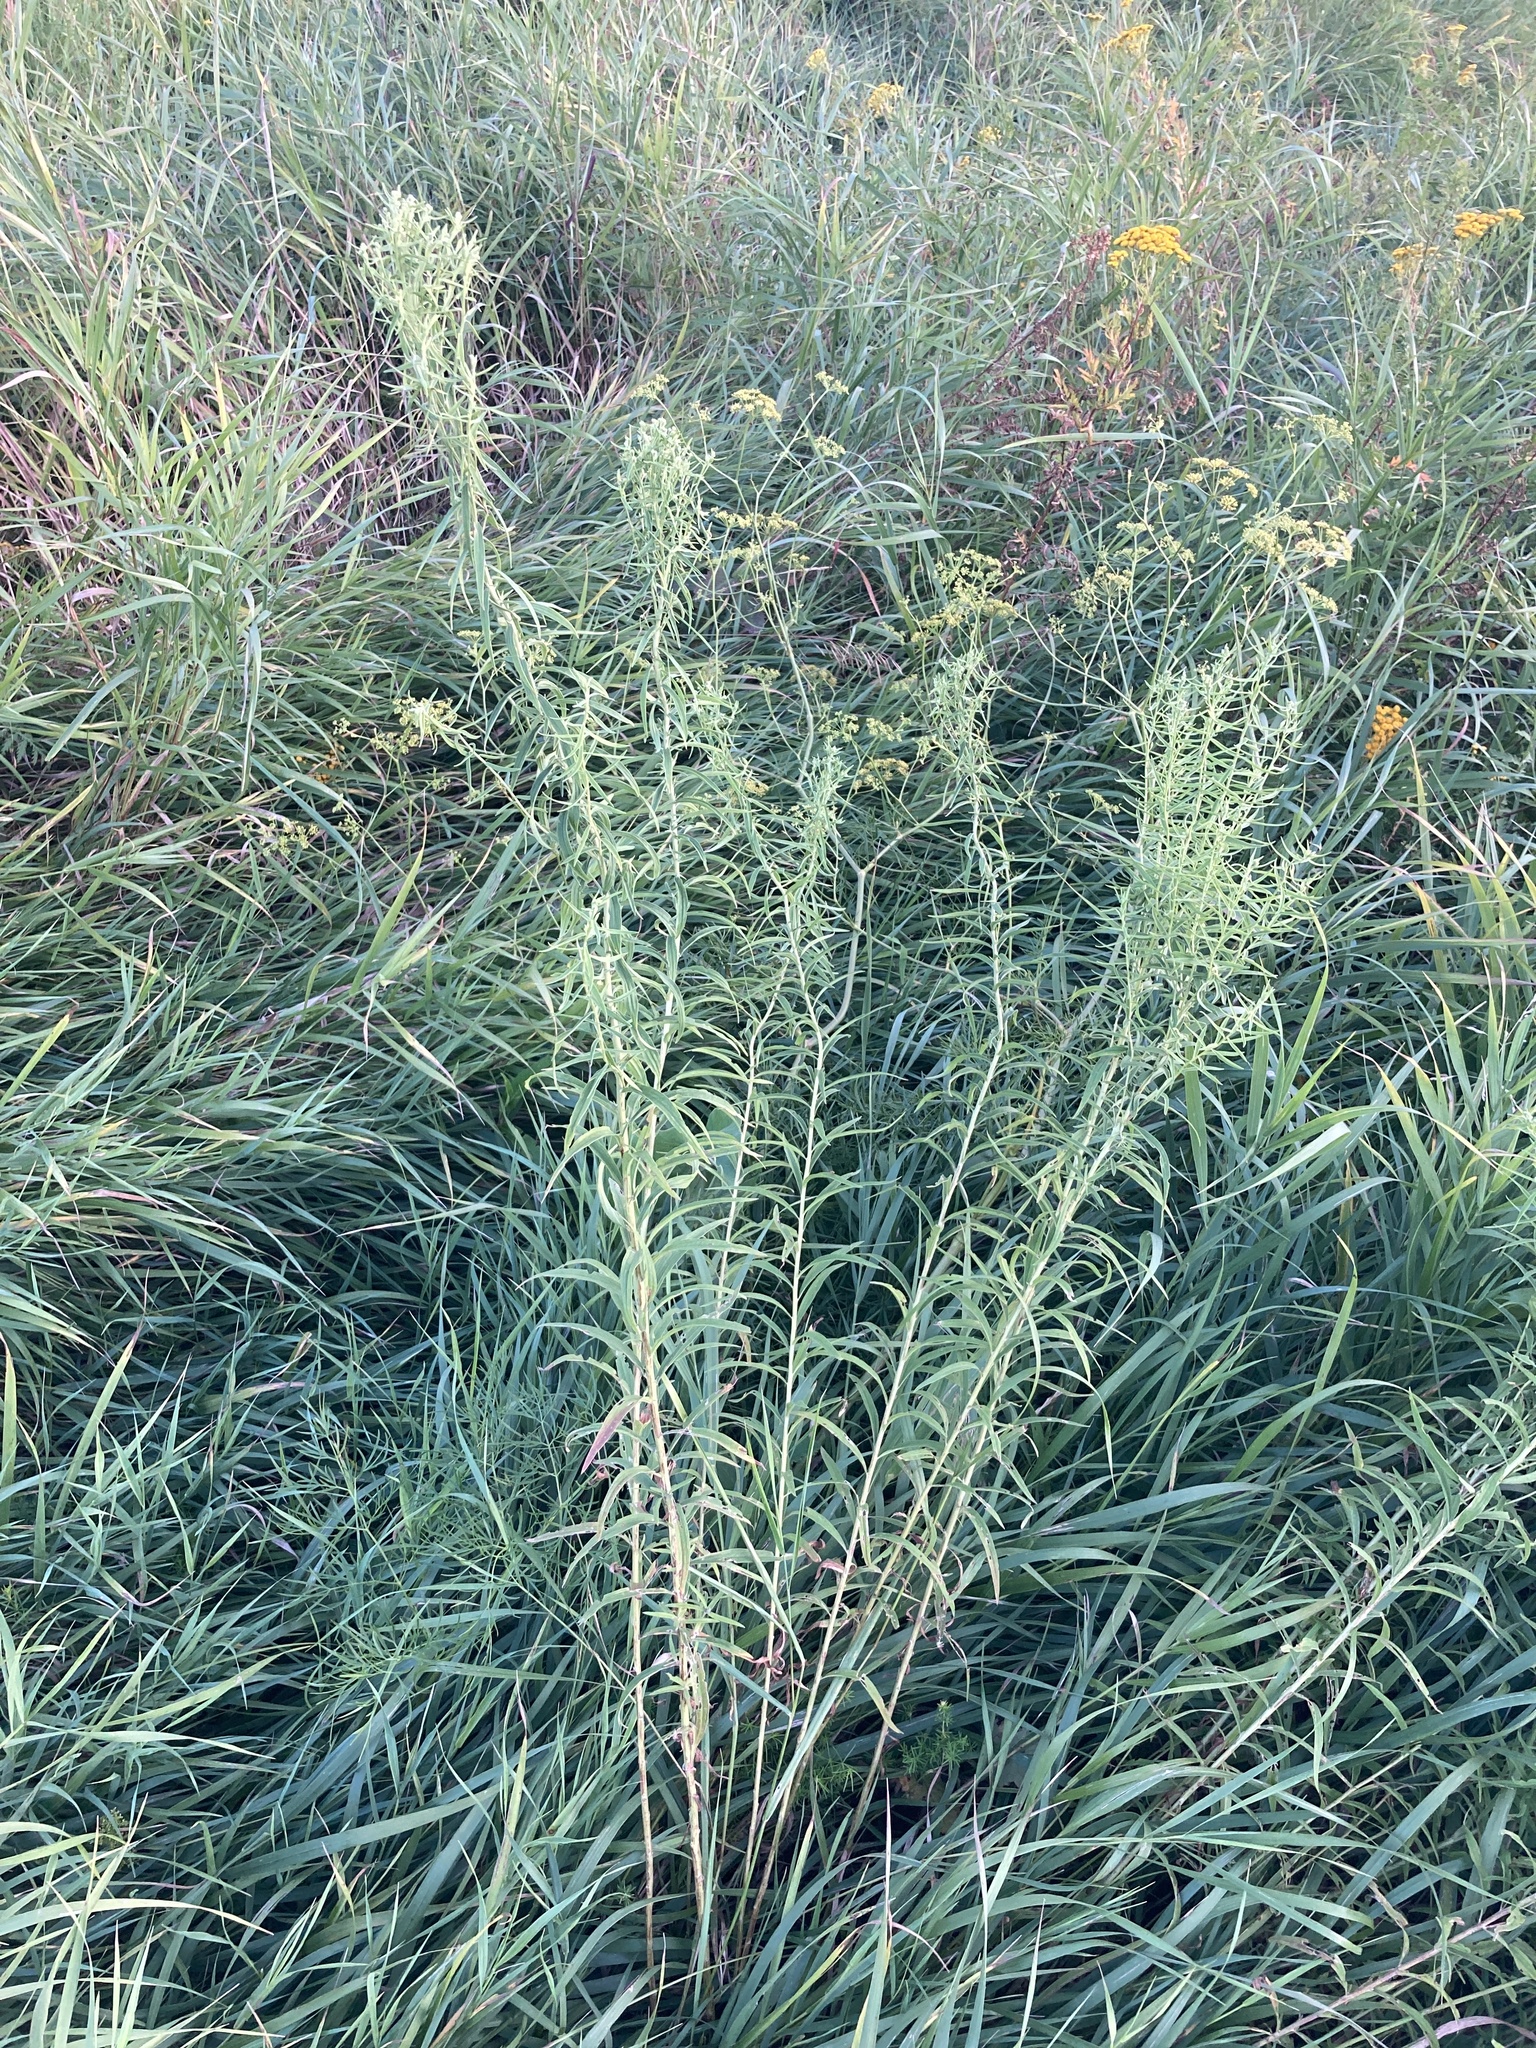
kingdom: Plantae
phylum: Tracheophyta
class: Magnoliopsida
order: Asterales
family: Asteraceae
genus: Galatella
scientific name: Galatella sedifolia
